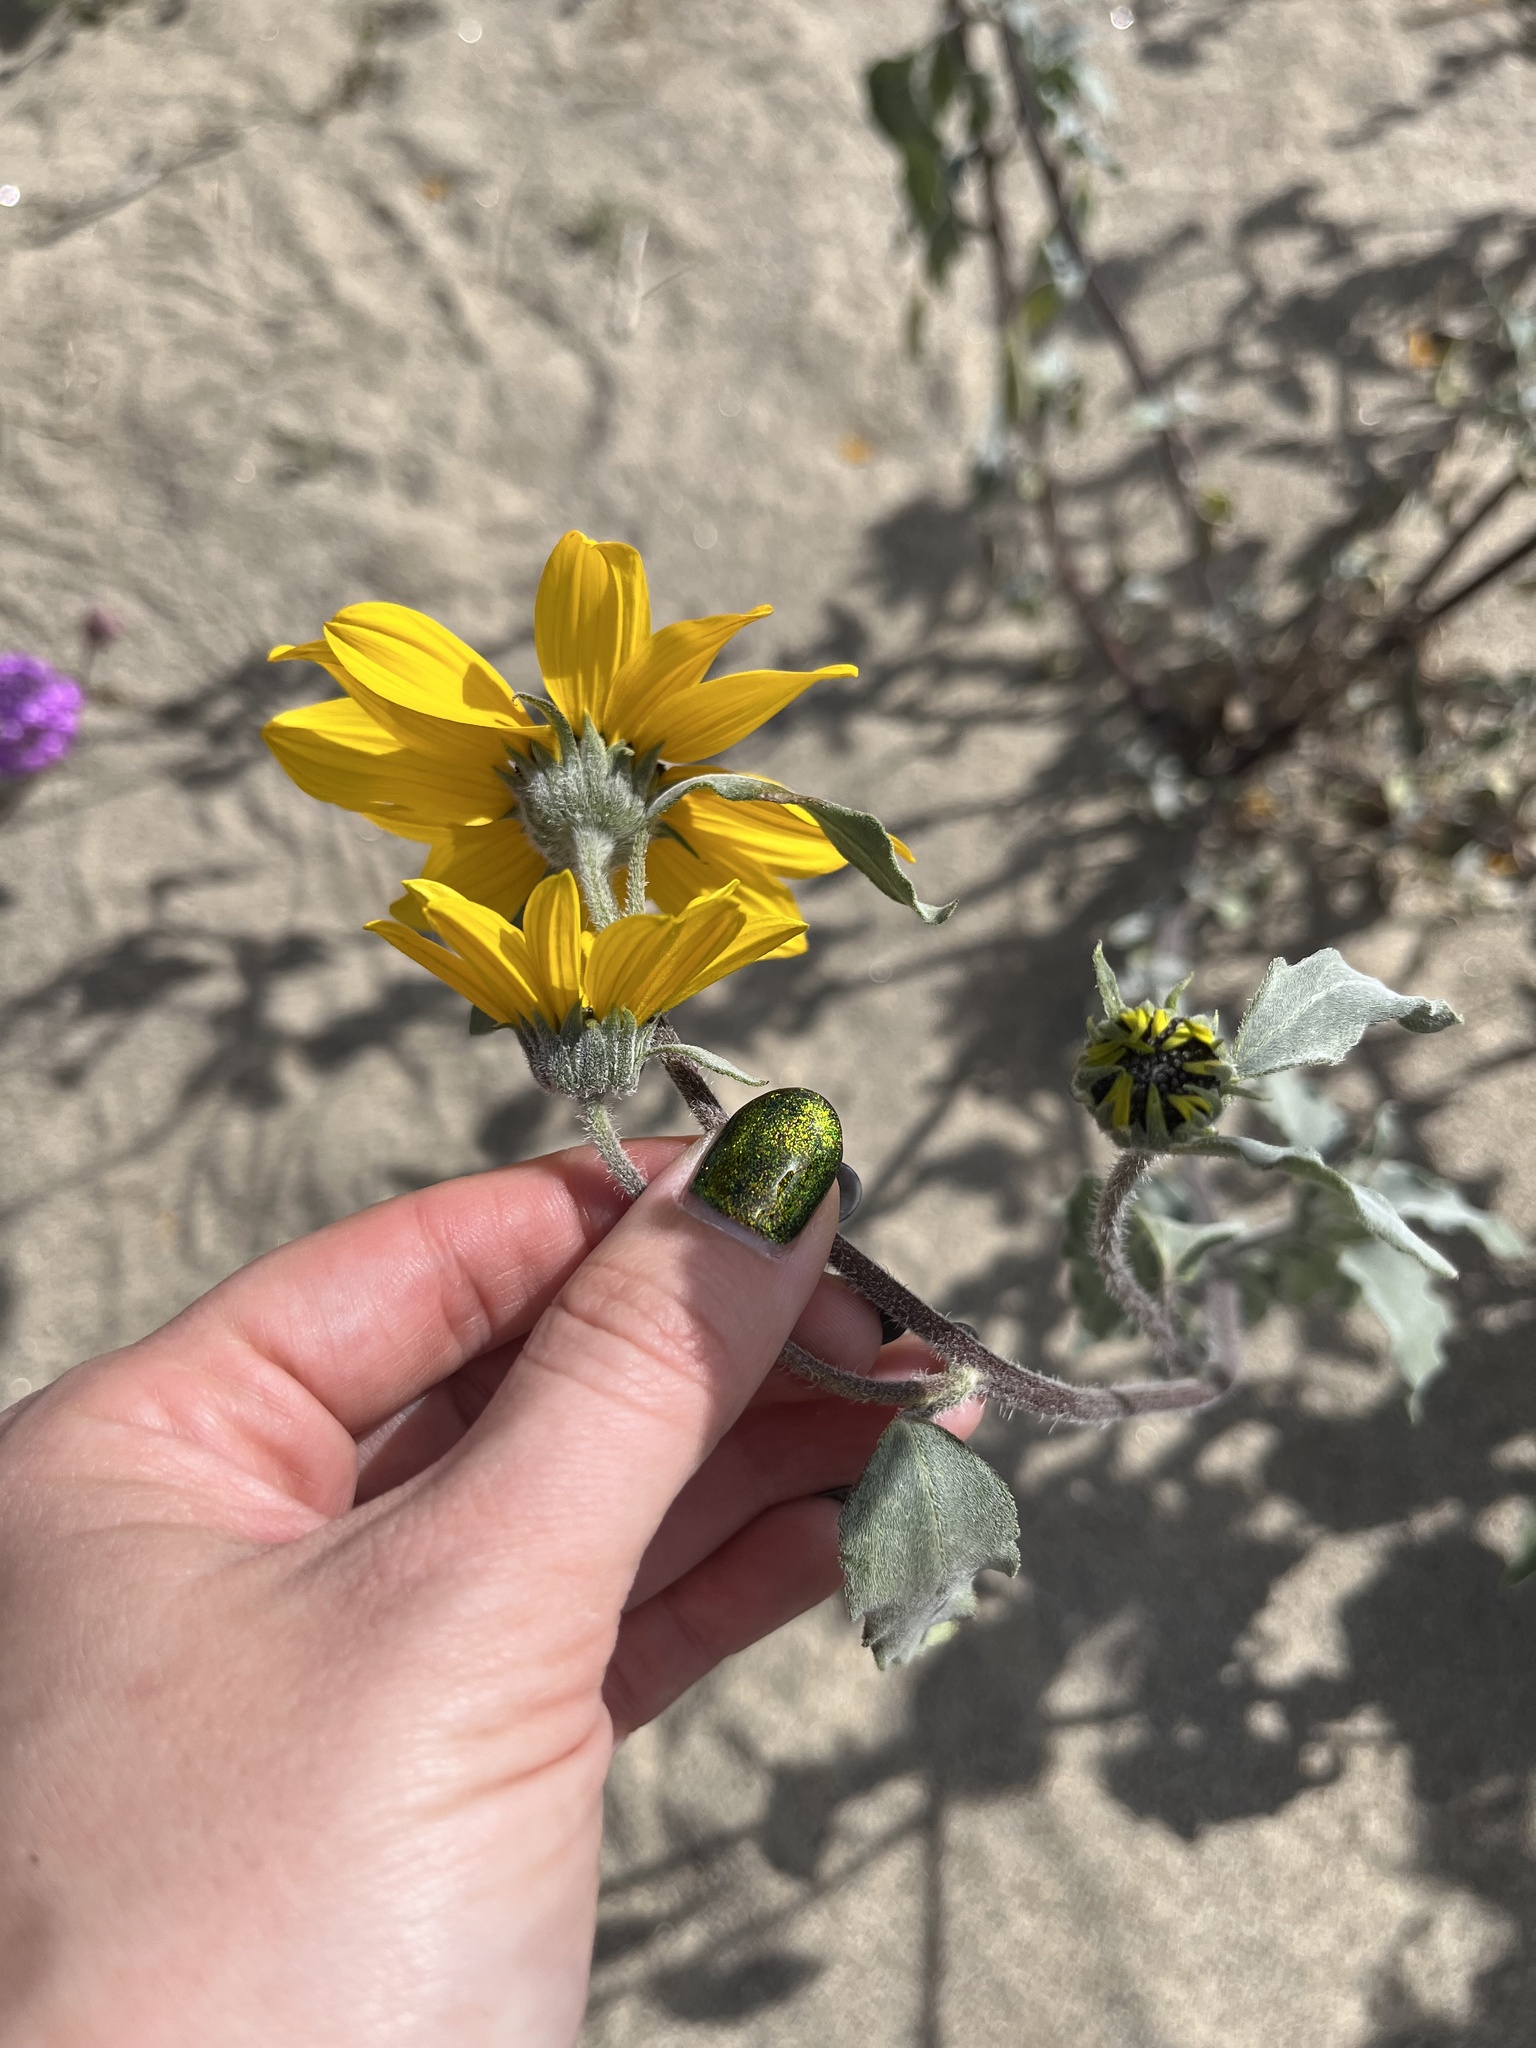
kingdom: Plantae
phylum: Tracheophyta
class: Magnoliopsida
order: Asterales
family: Asteraceae
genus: Helianthus
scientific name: Helianthus petiolaris
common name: Lesser sunflower
